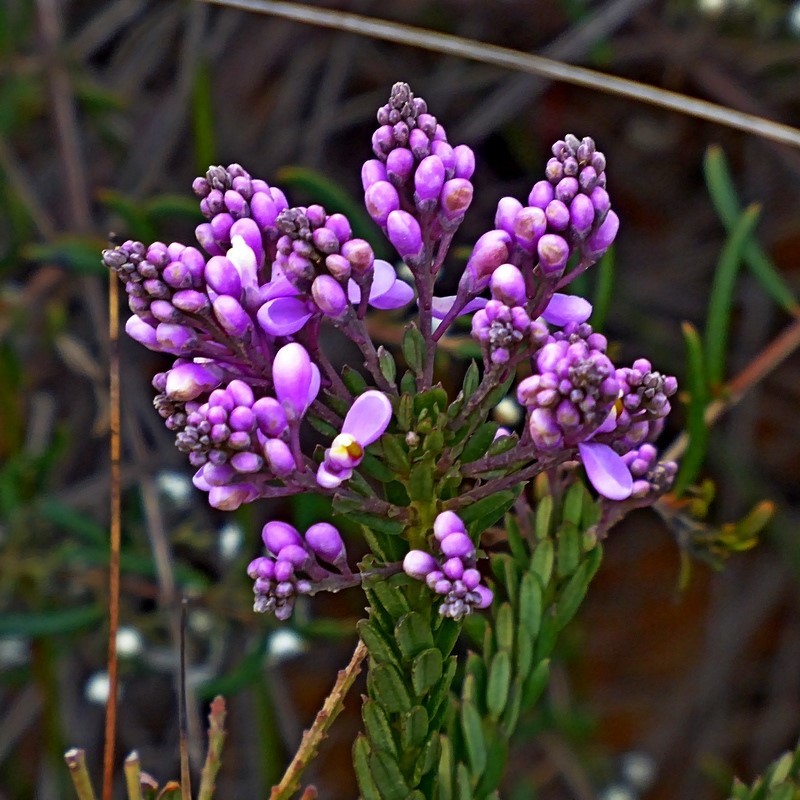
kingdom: Plantae
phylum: Tracheophyta
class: Magnoliopsida
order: Fabales
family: Polygalaceae
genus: Comesperma
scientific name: Comesperma ericinum
